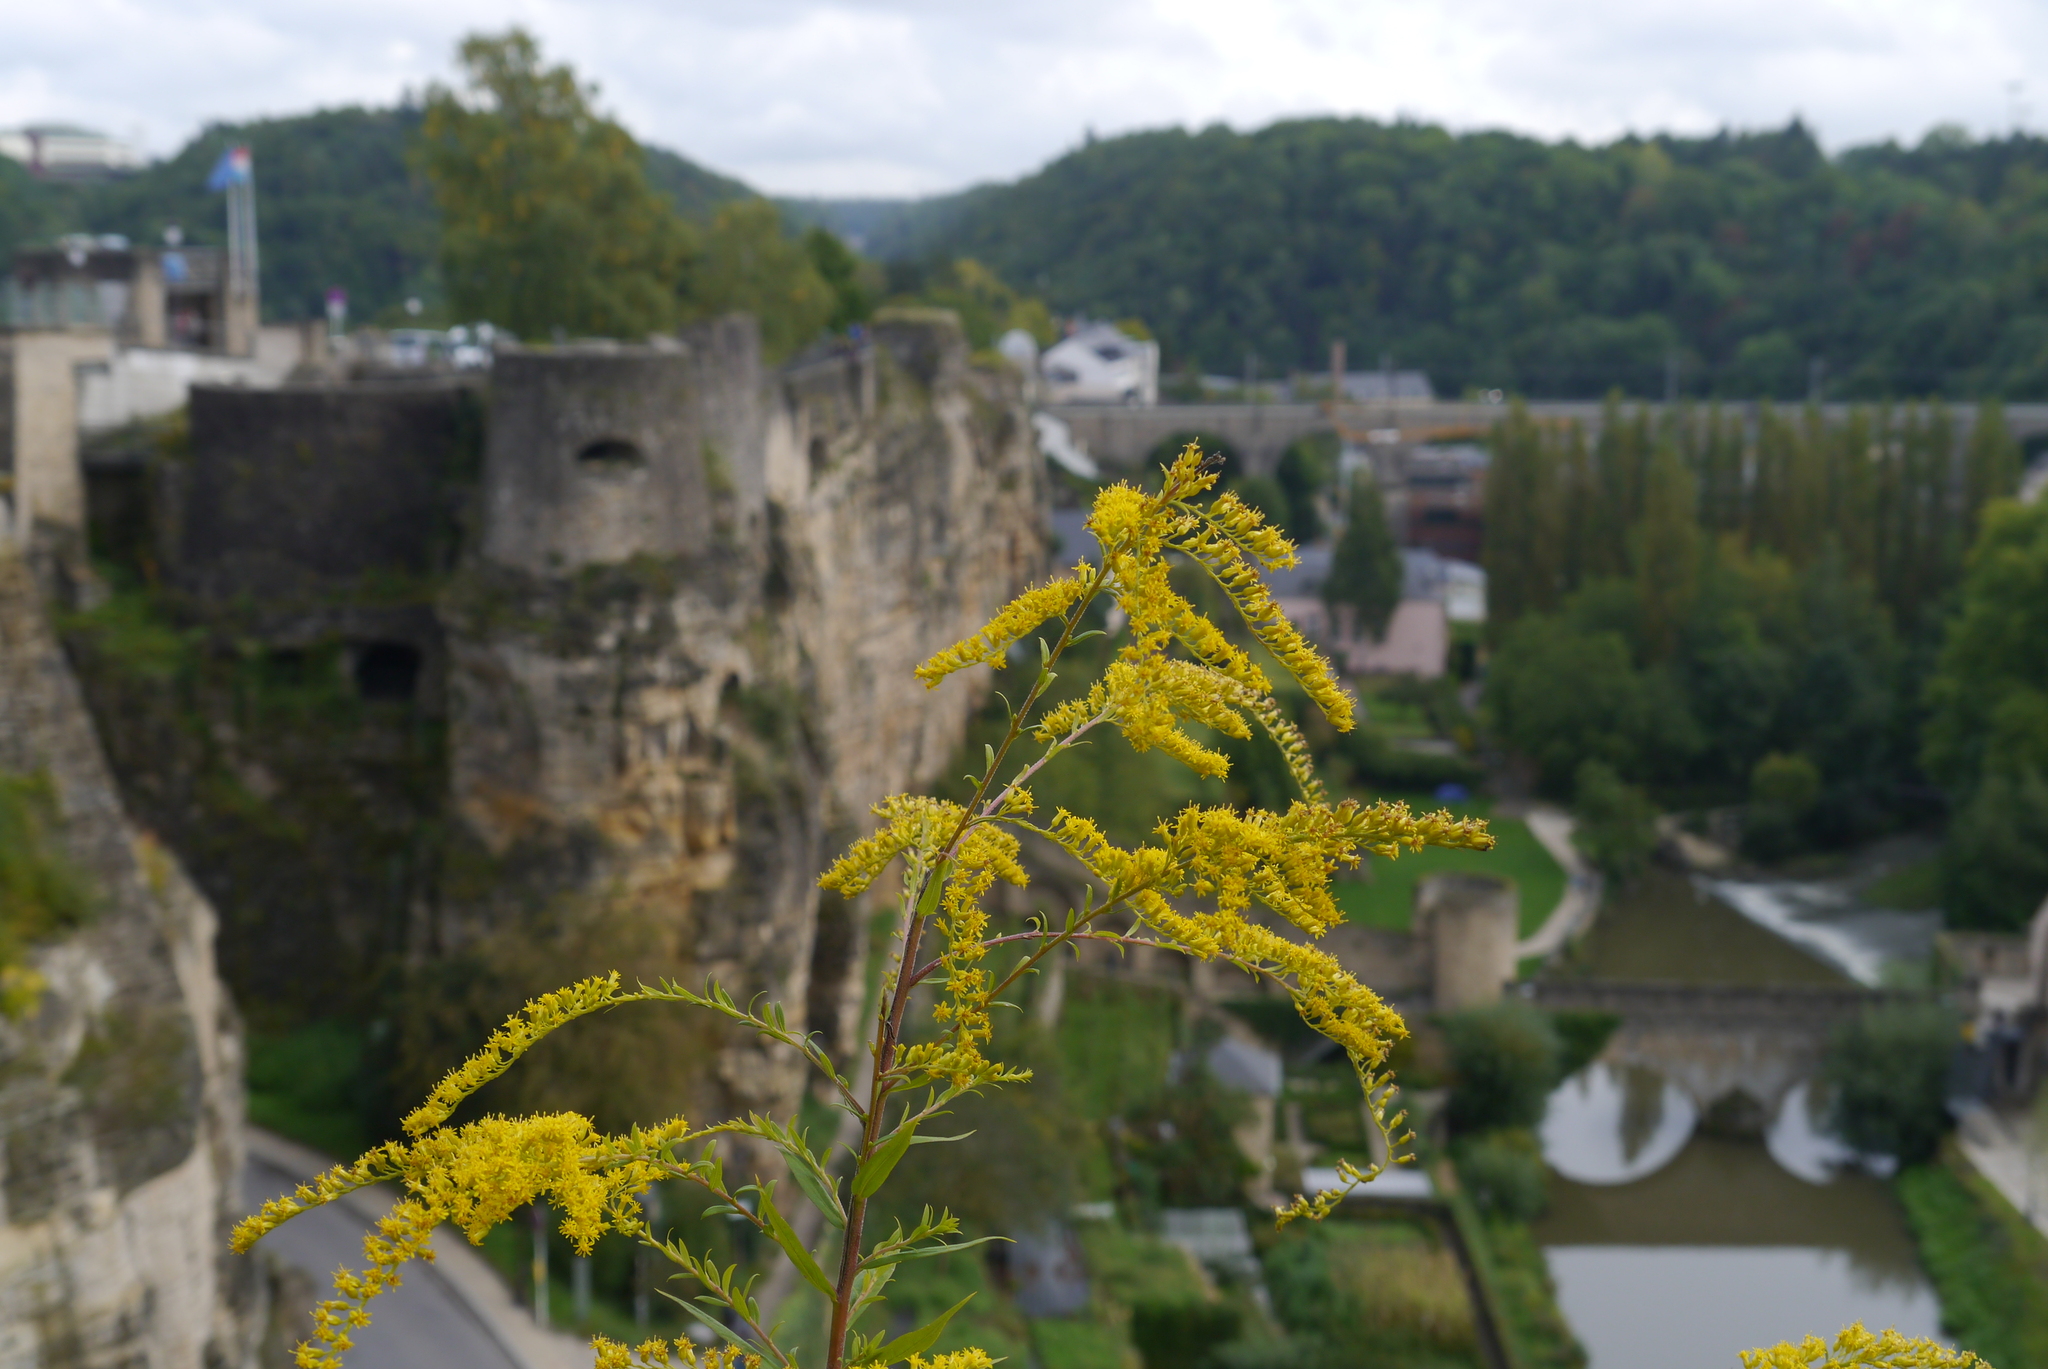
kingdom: Plantae
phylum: Tracheophyta
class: Magnoliopsida
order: Asterales
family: Asteraceae
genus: Solidago
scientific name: Solidago canadensis
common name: Canada goldenrod
